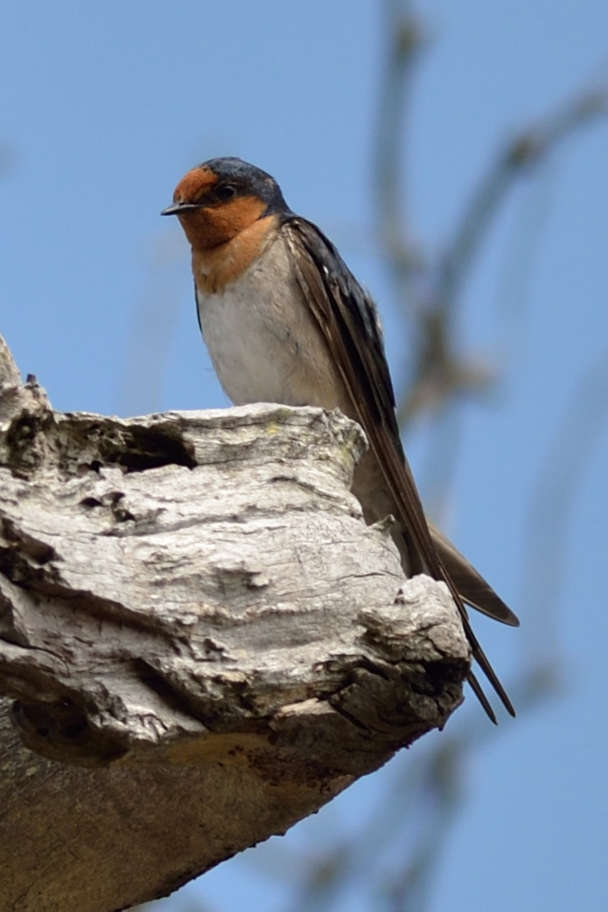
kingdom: Animalia
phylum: Chordata
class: Aves
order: Passeriformes
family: Hirundinidae
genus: Hirundo
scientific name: Hirundo neoxena
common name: Welcome swallow
